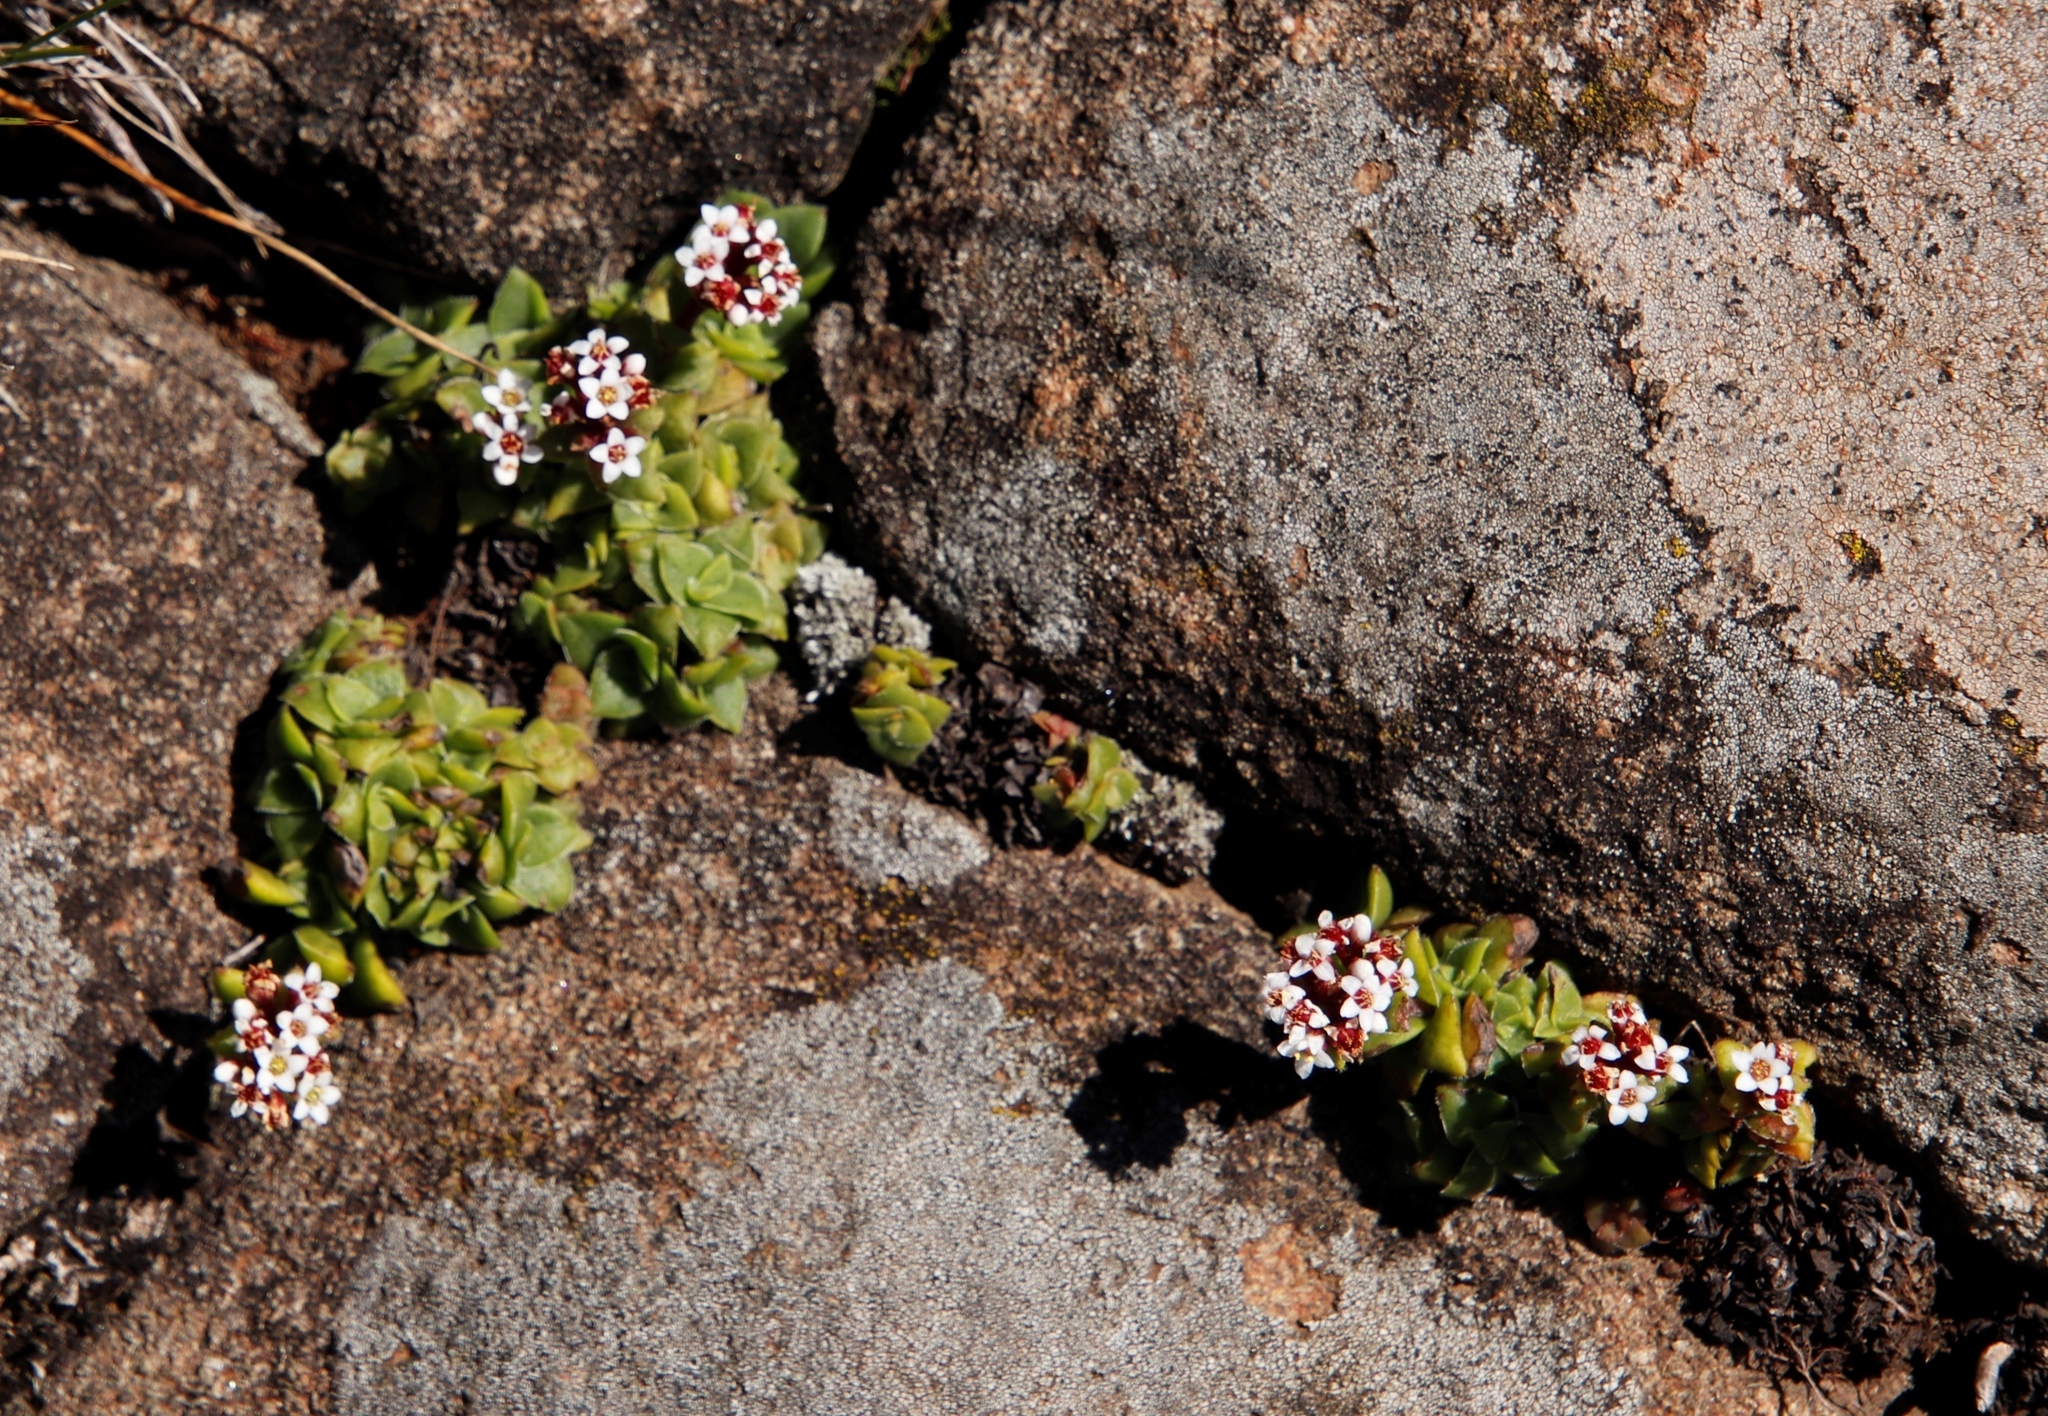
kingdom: Plantae
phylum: Tracheophyta
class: Magnoliopsida
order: Saxifragales
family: Crassulaceae
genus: Crassula
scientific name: Crassula setulosa
